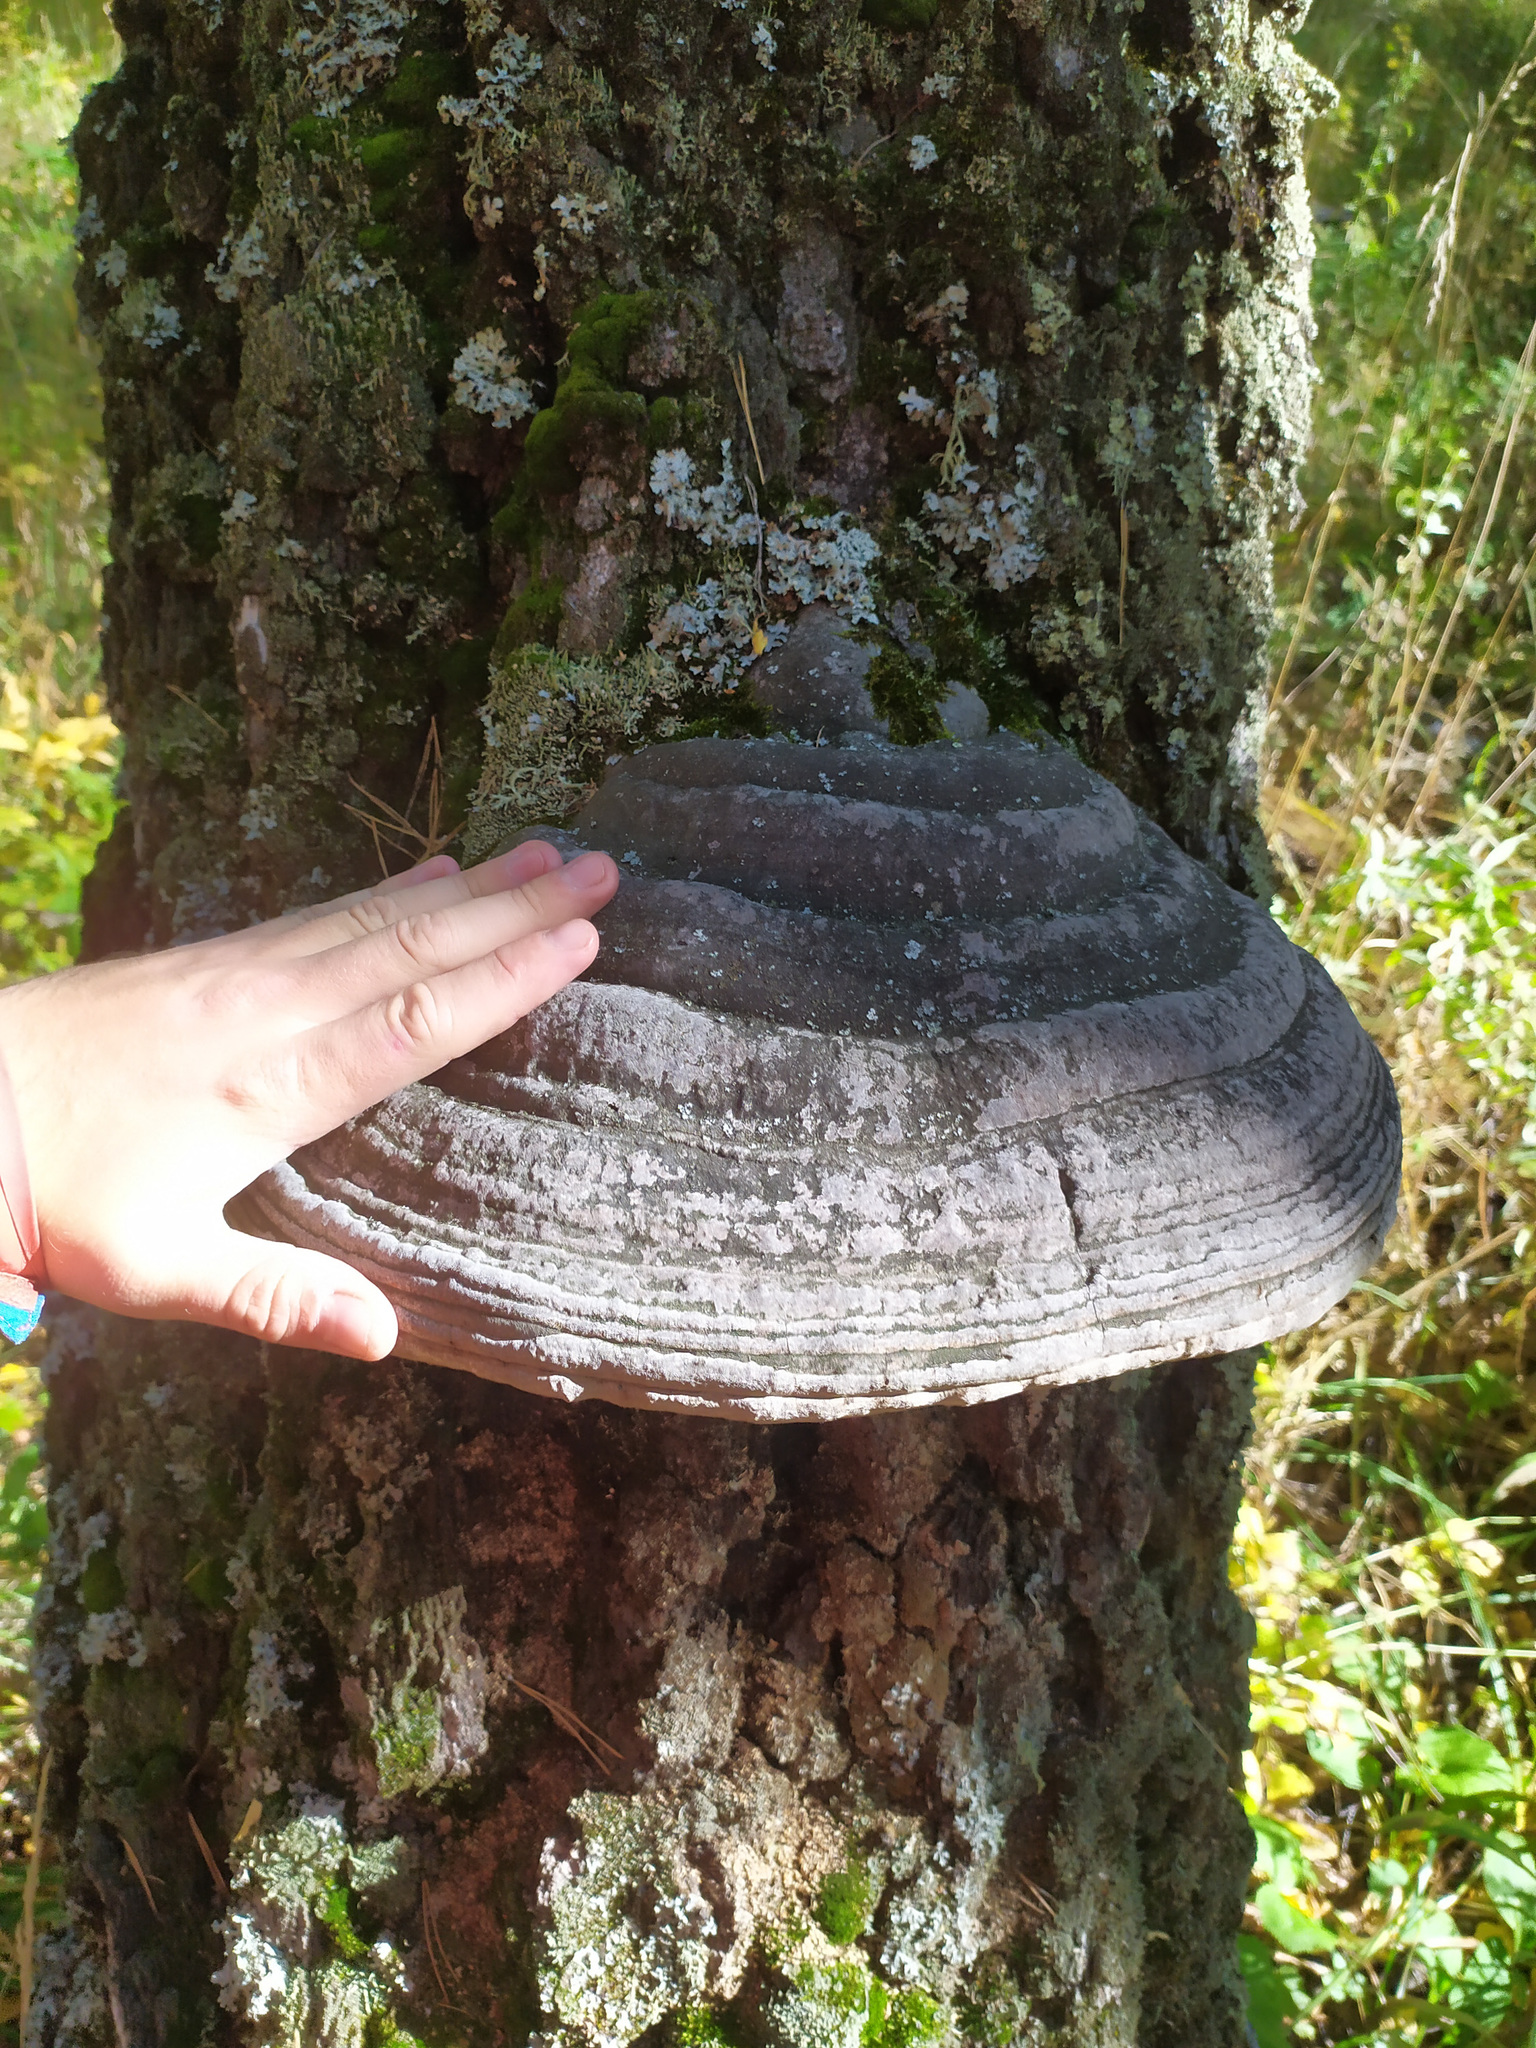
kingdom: Fungi
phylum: Basidiomycota
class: Agaricomycetes
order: Polyporales
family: Polyporaceae
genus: Fomes
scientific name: Fomes fomentarius
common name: Hoof fungus
